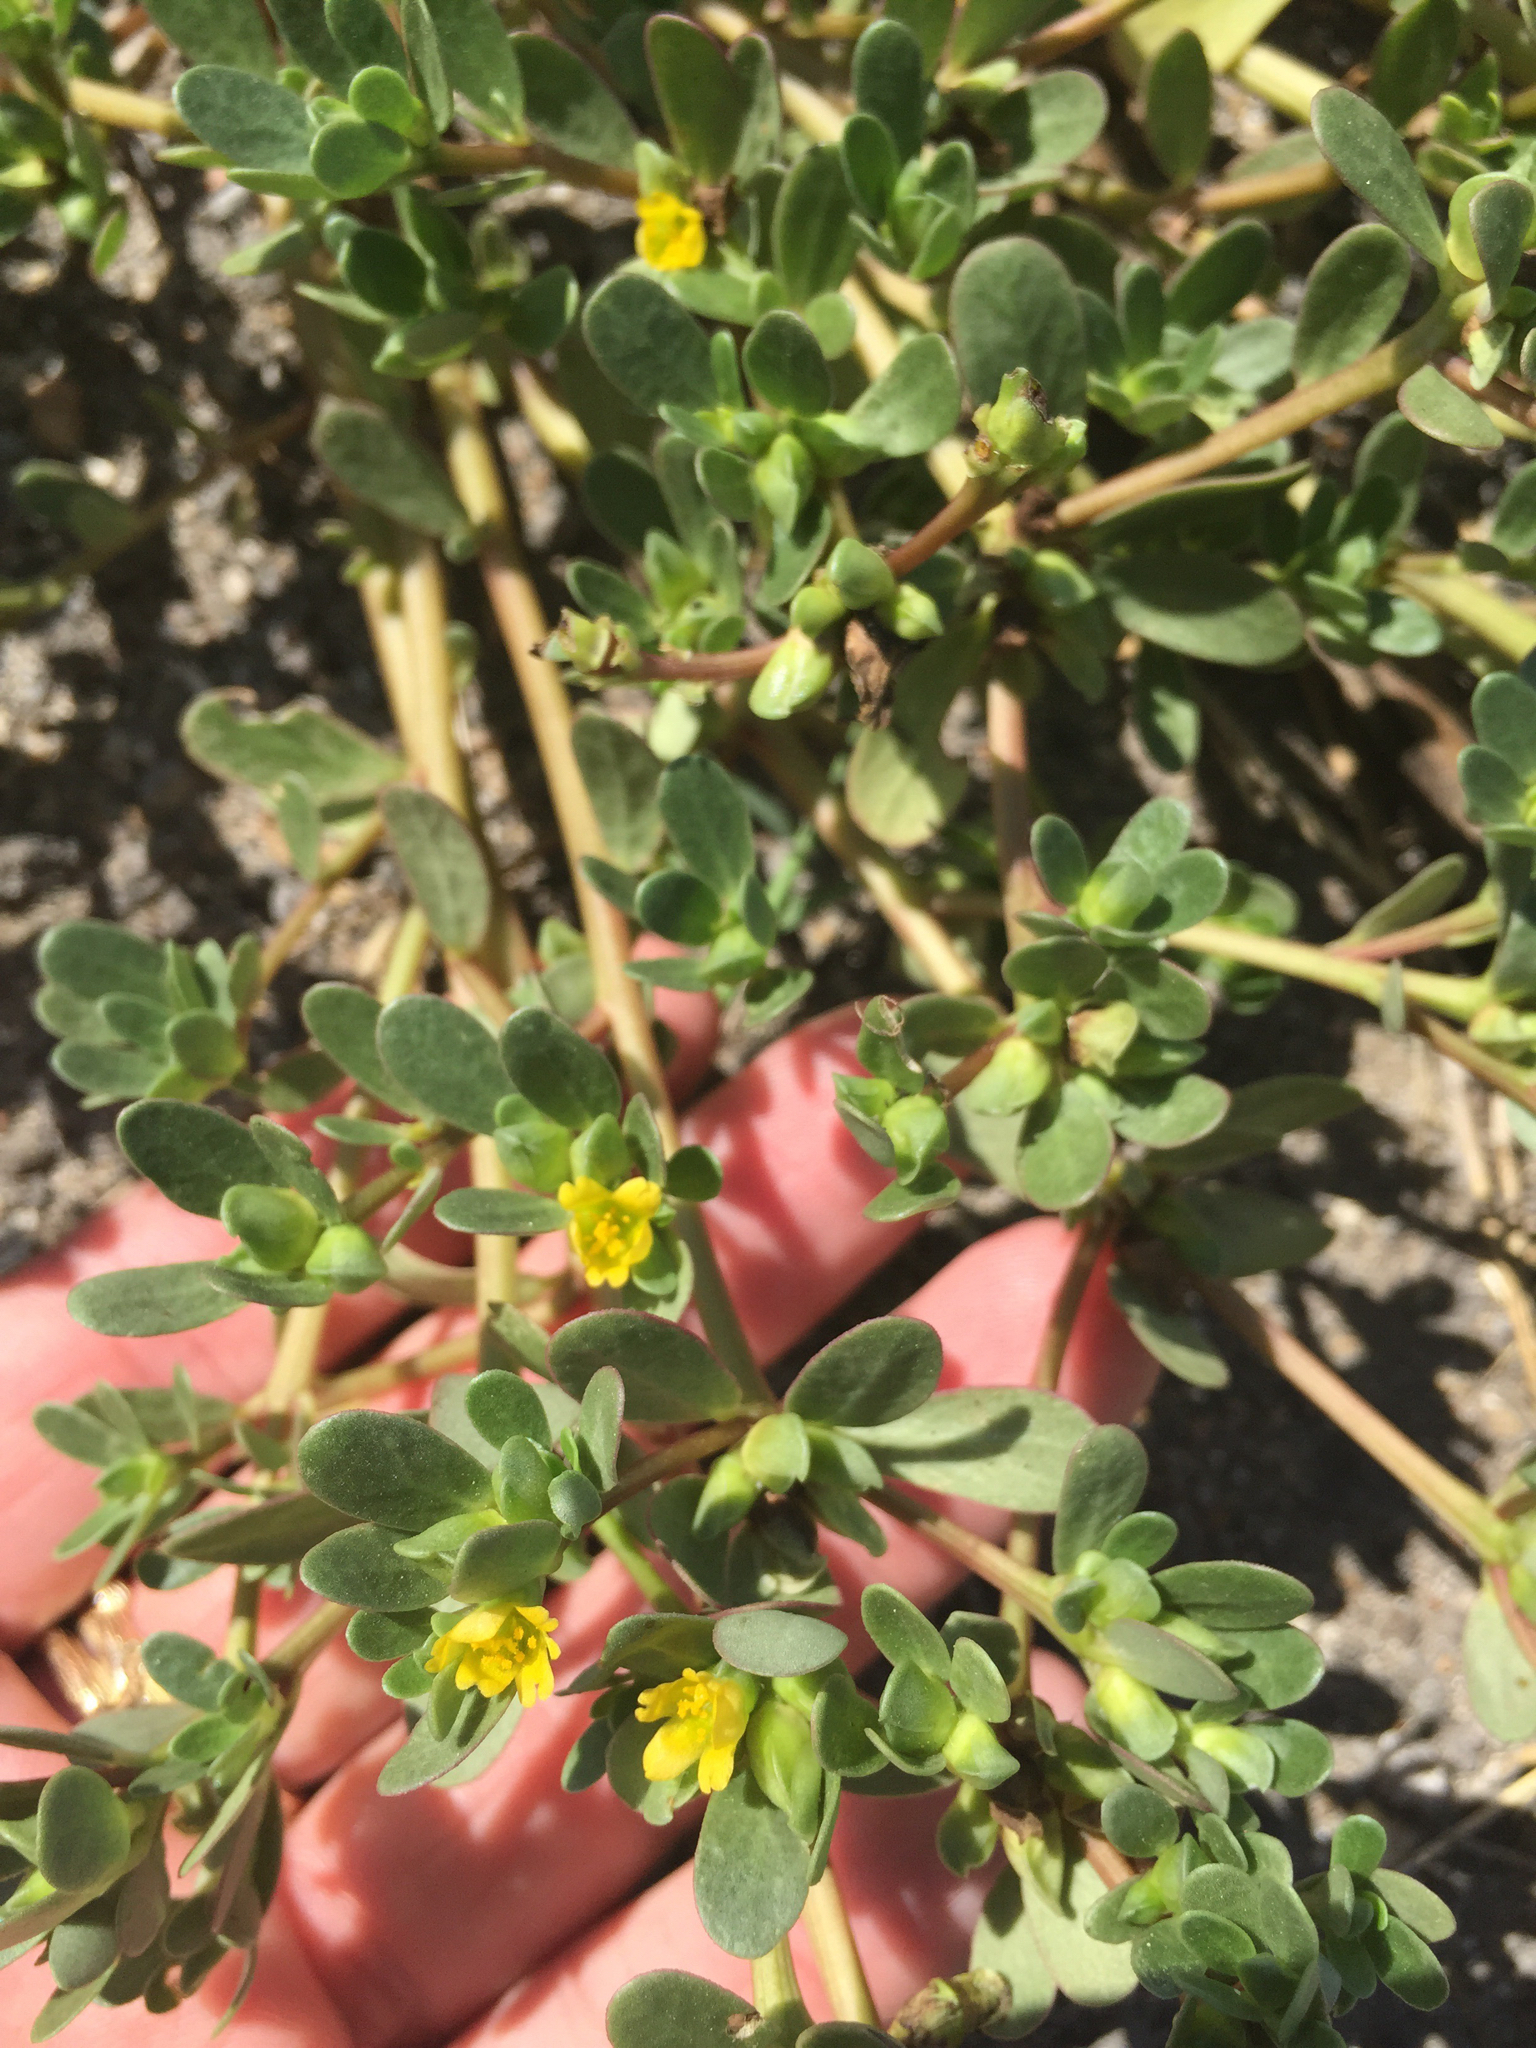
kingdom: Plantae
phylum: Tracheophyta
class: Magnoliopsida
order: Caryophyllales
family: Portulacaceae
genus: Portulaca
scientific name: Portulaca oleracea
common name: Common purslane
